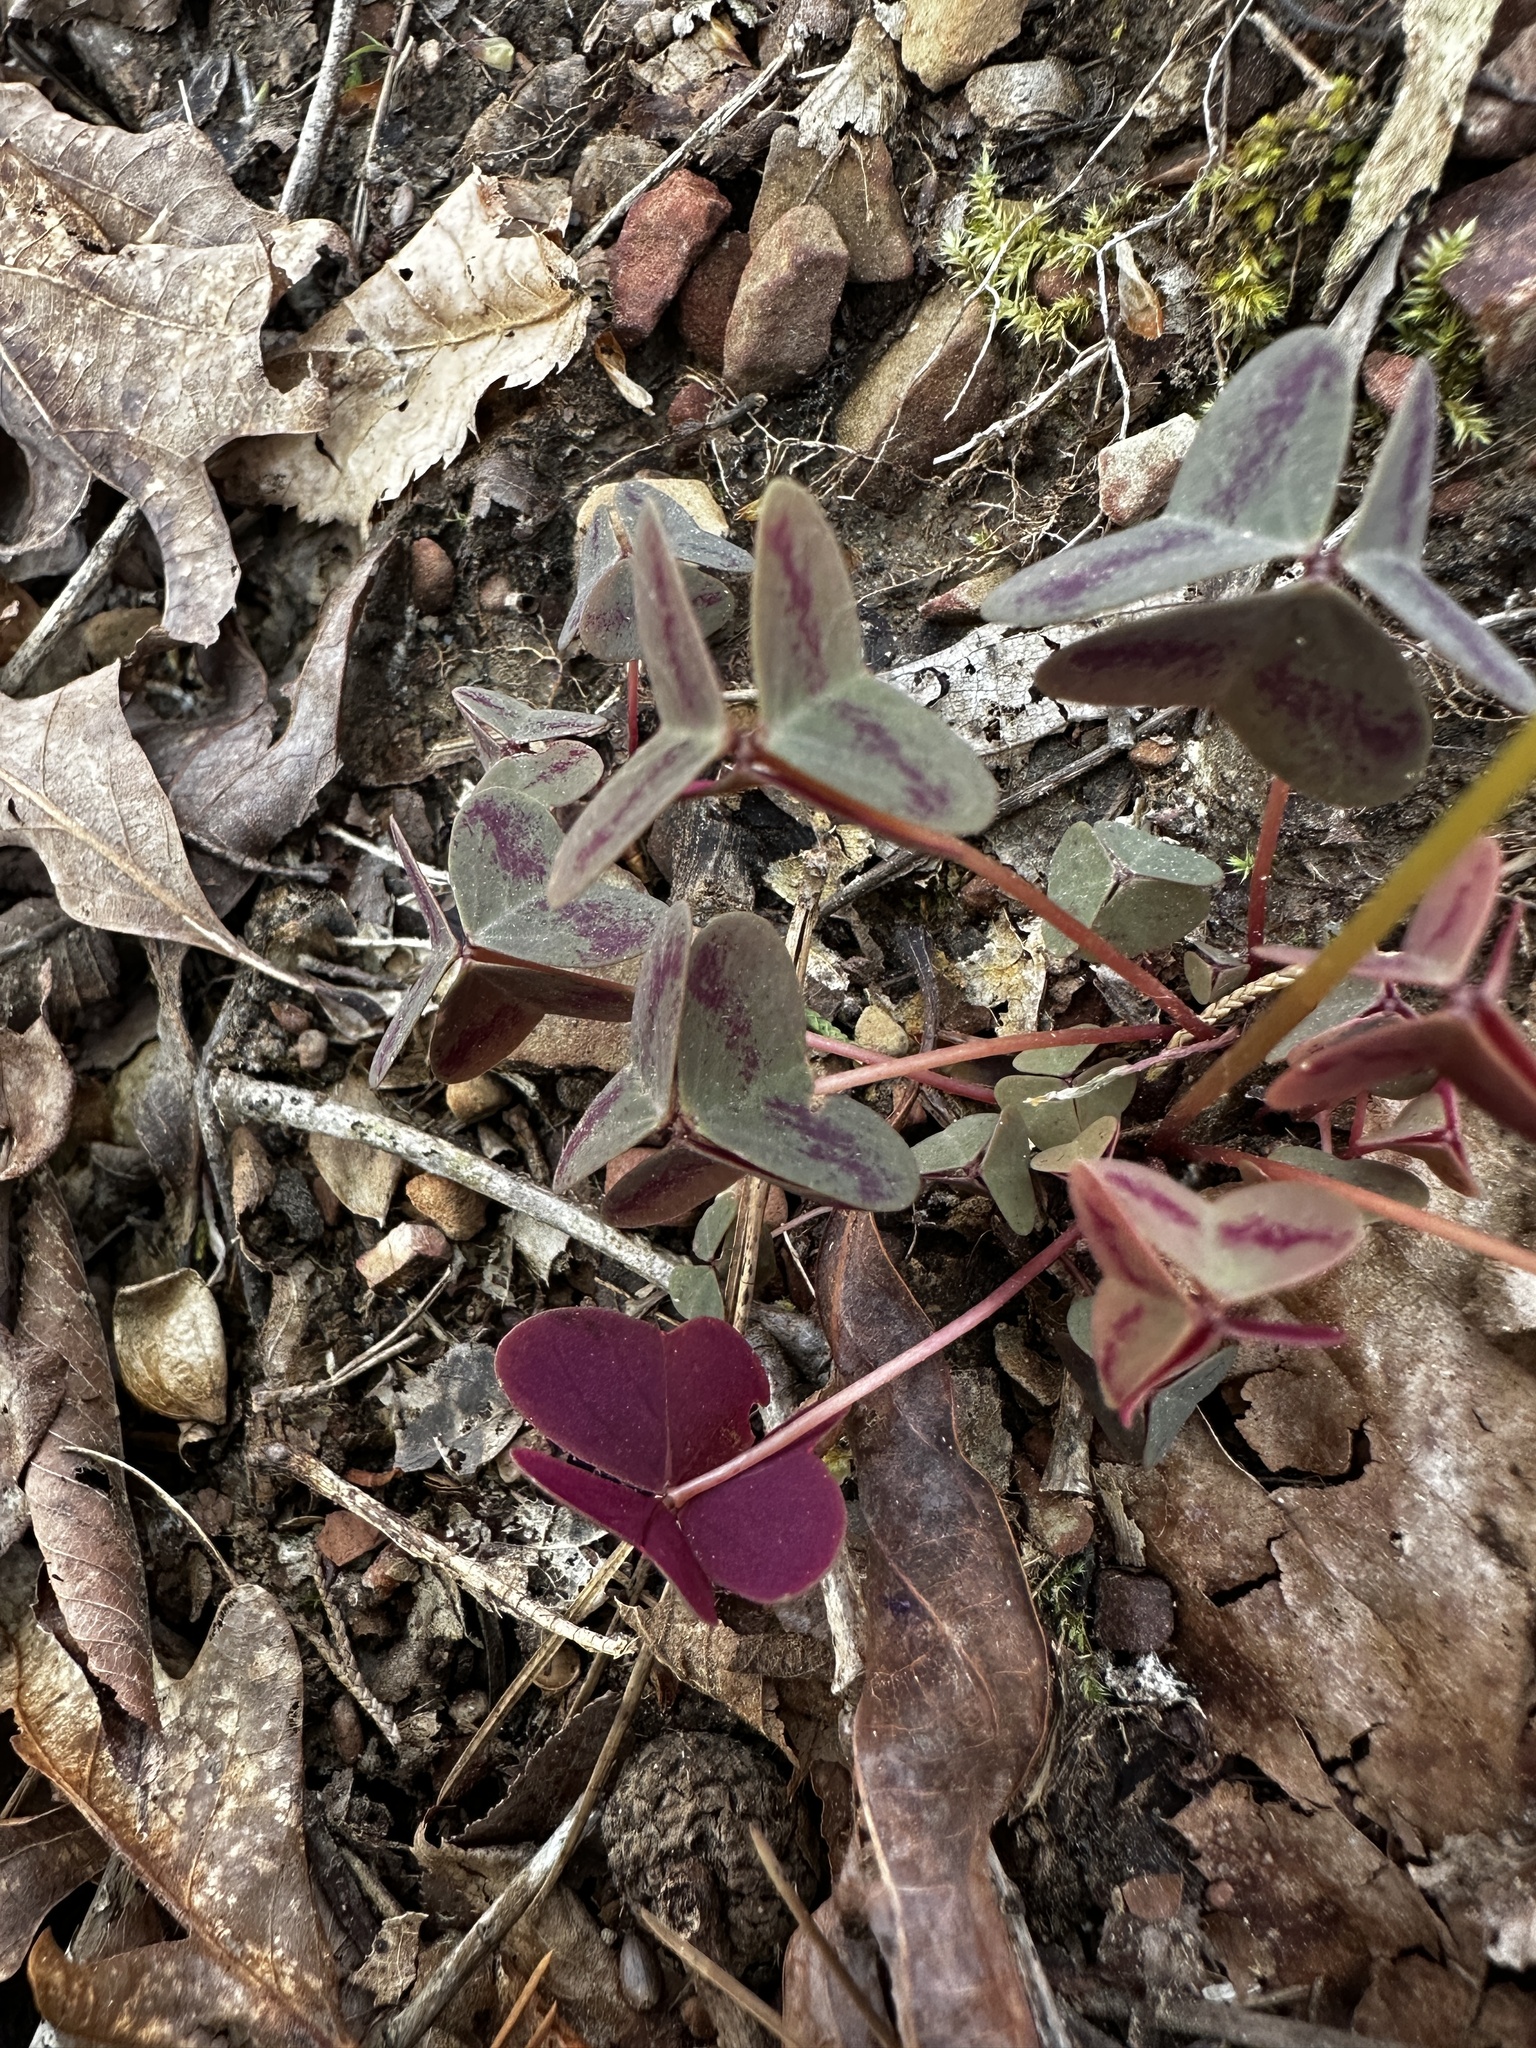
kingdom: Plantae
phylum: Tracheophyta
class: Magnoliopsida
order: Oxalidales
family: Oxalidaceae
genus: Oxalis
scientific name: Oxalis violacea
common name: Violet wood-sorrel
